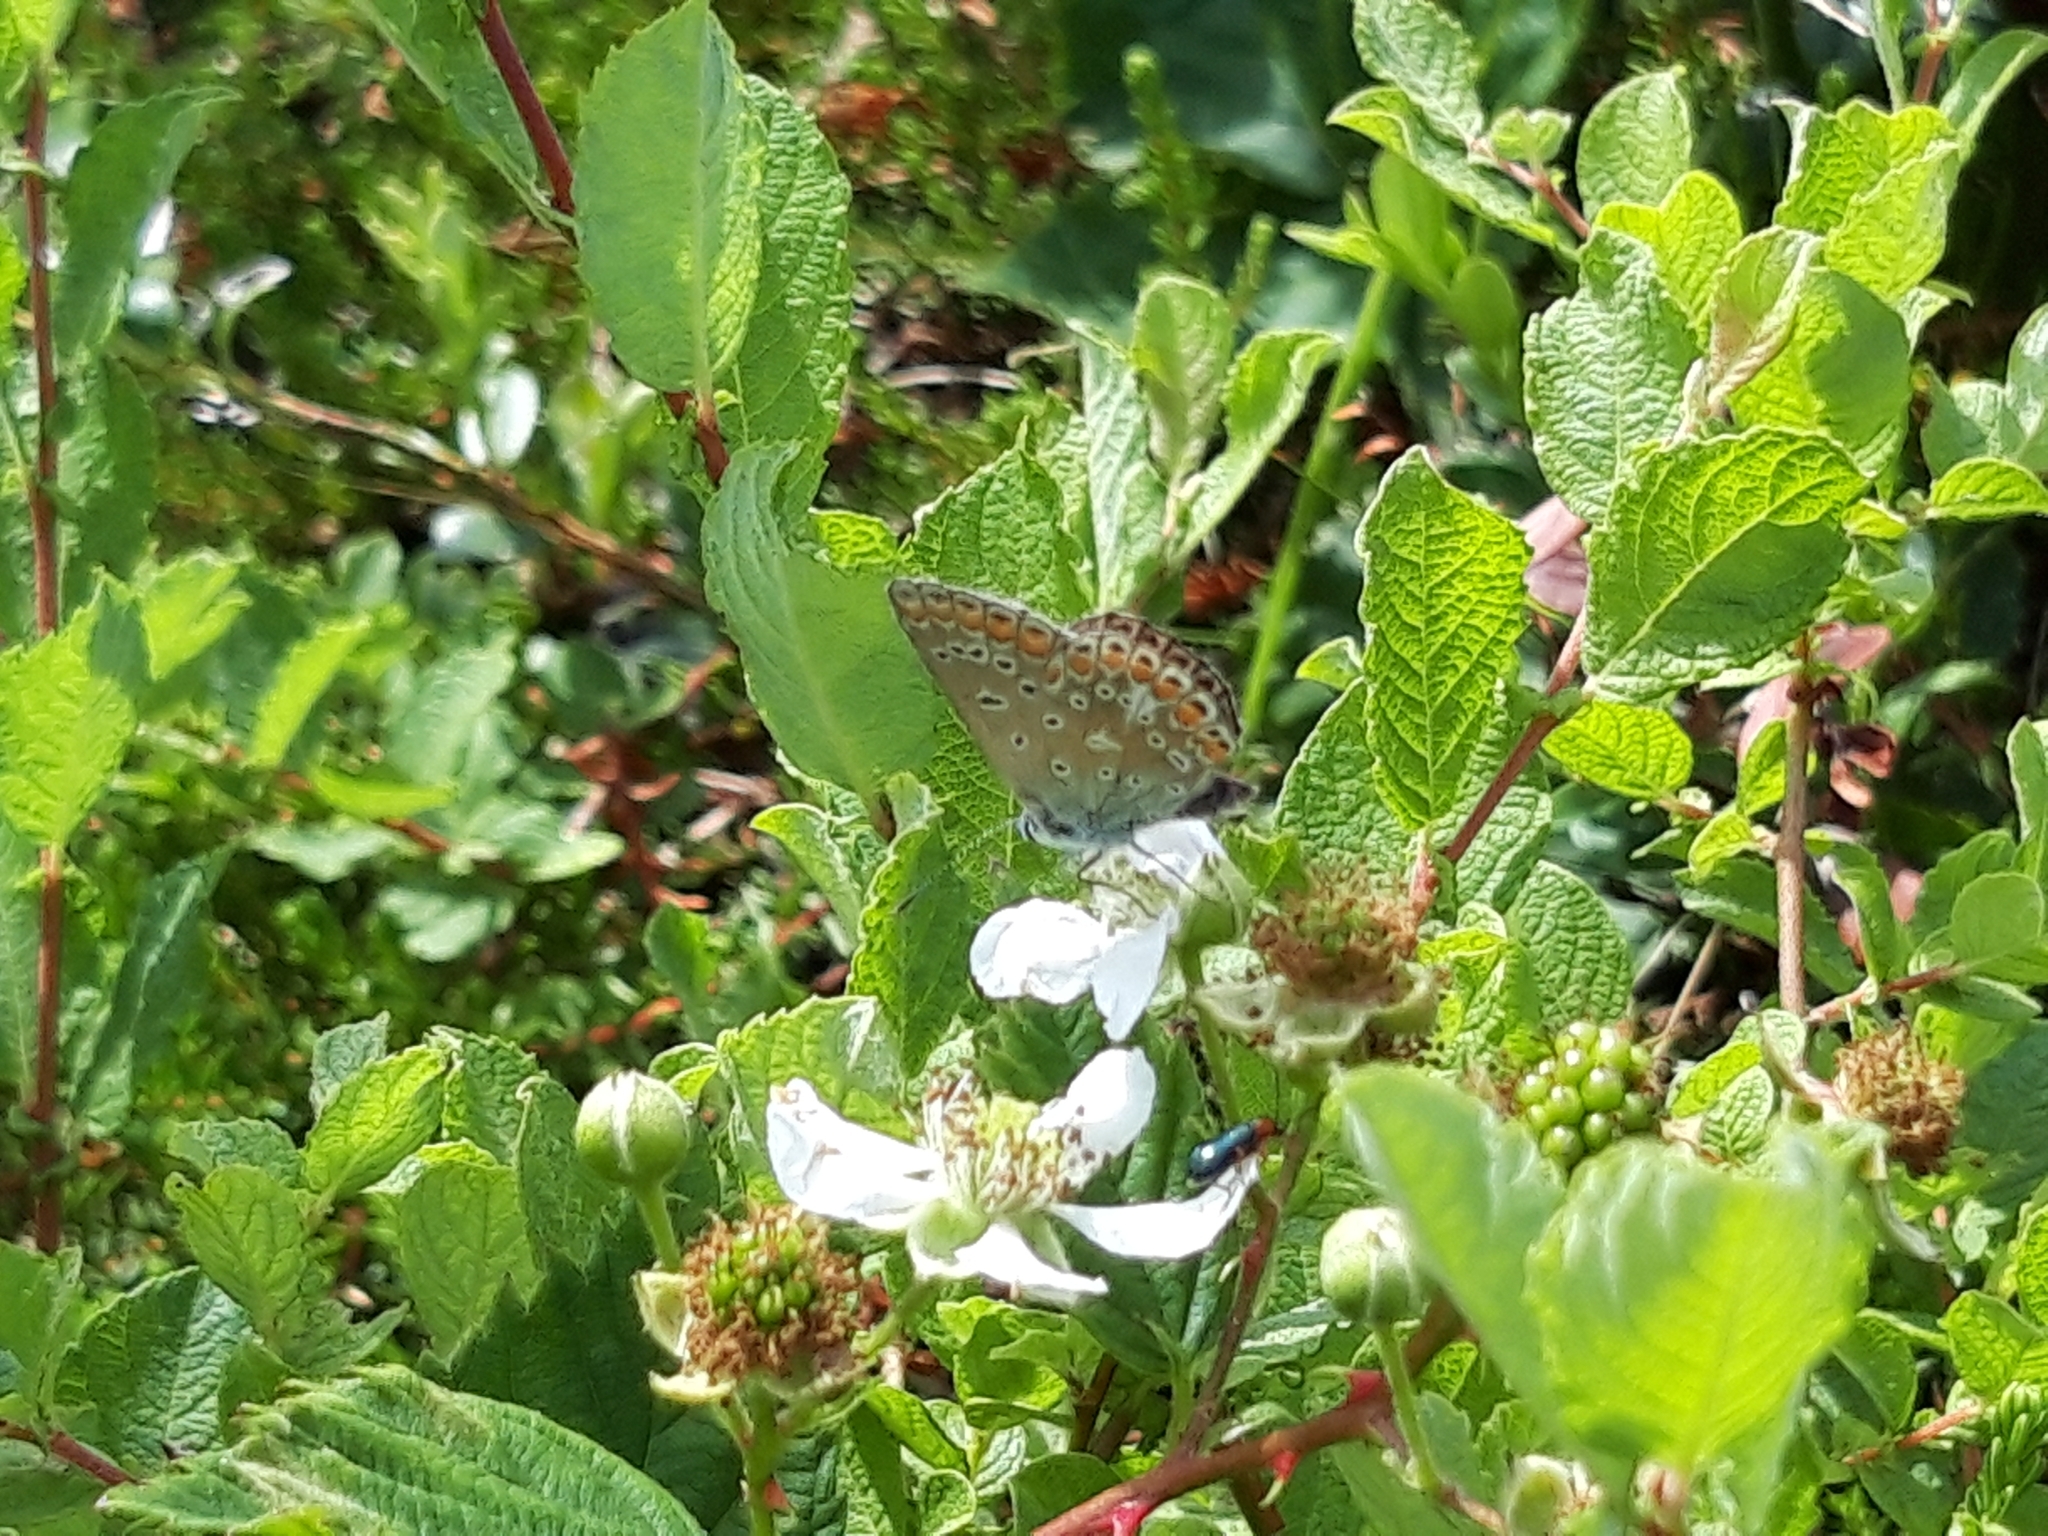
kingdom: Animalia
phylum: Arthropoda
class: Insecta
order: Lepidoptera
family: Lycaenidae
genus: Polyommatus
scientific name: Polyommatus icarus
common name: Common blue
